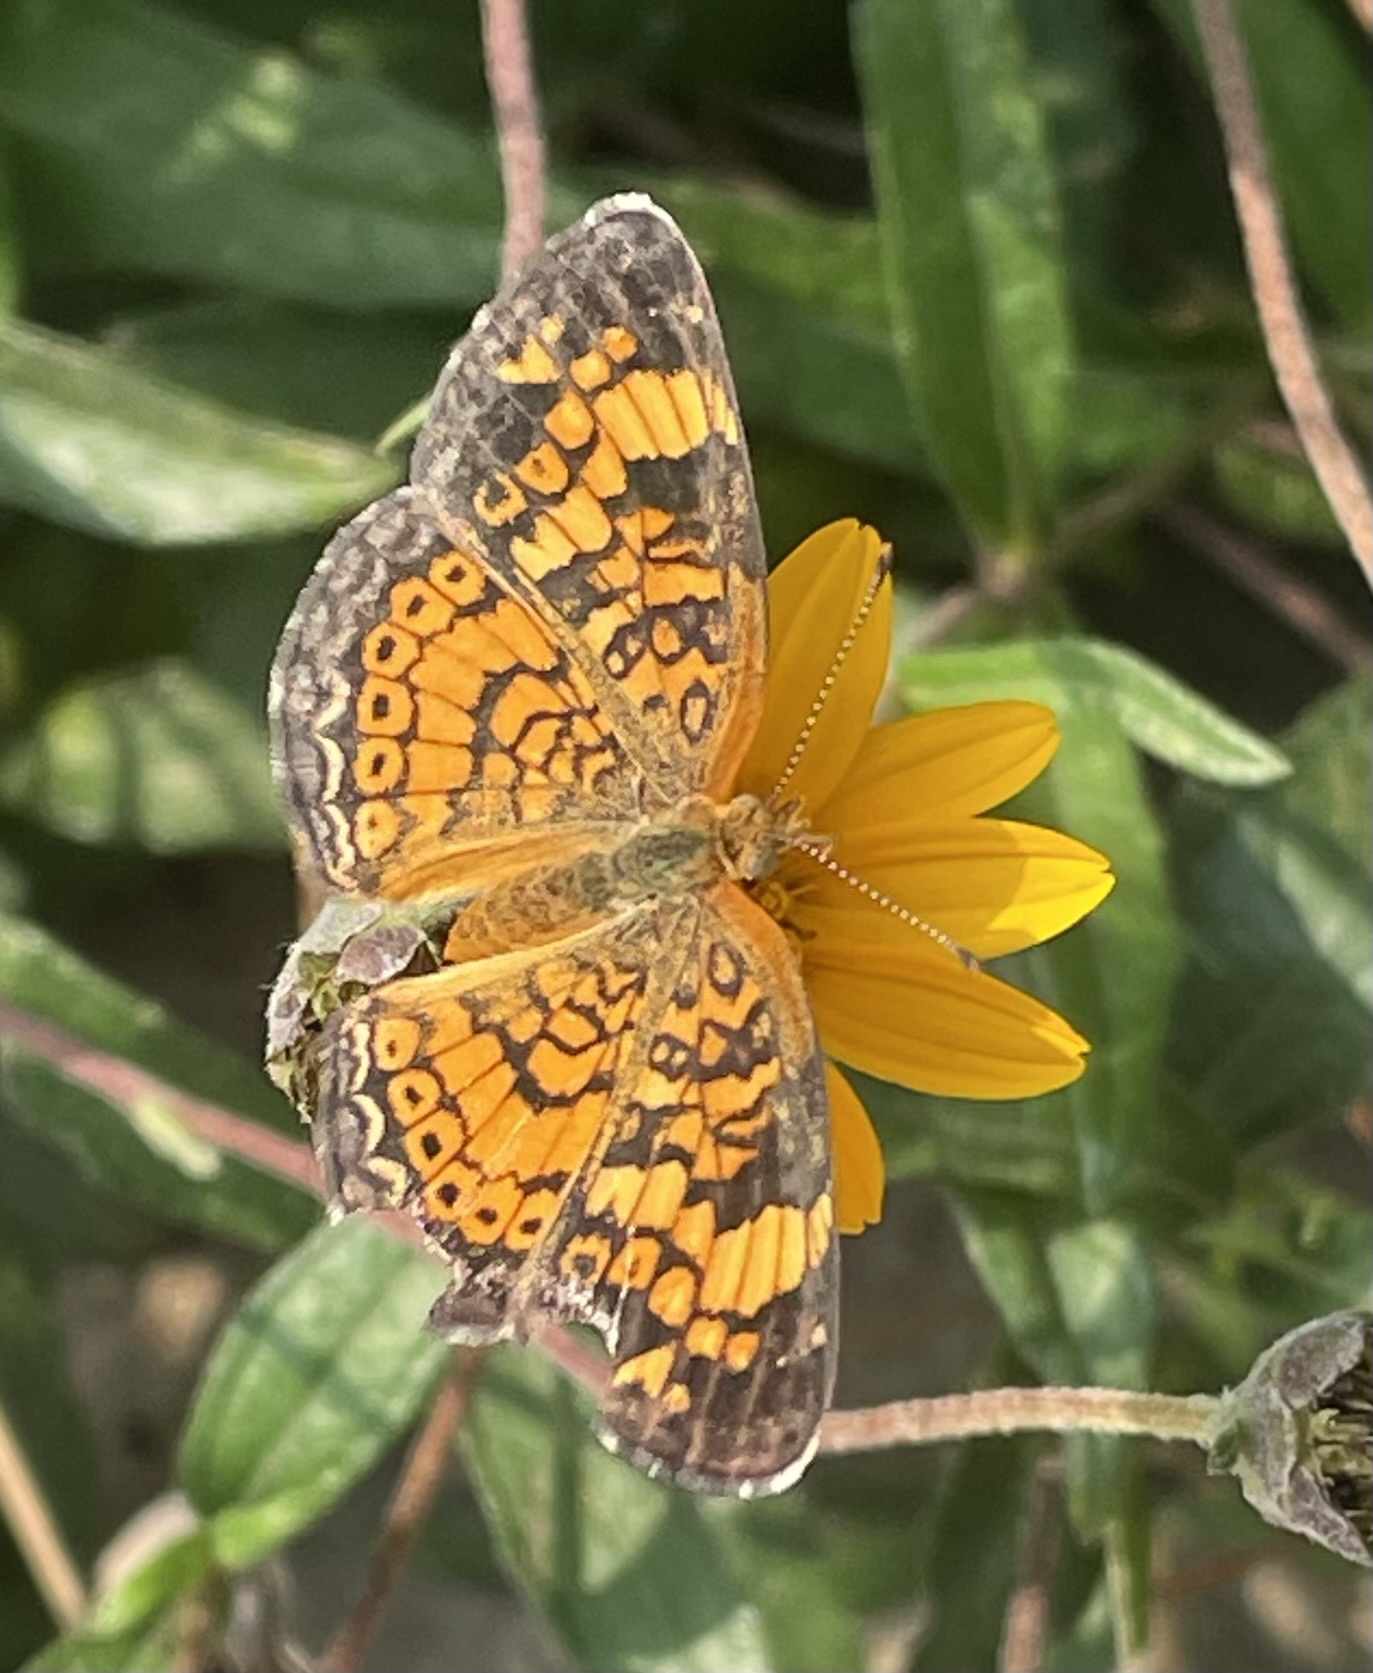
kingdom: Animalia
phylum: Arthropoda
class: Insecta
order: Lepidoptera
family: Nymphalidae
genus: Phyciodes
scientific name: Phyciodes tharos
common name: Pearl crescent
